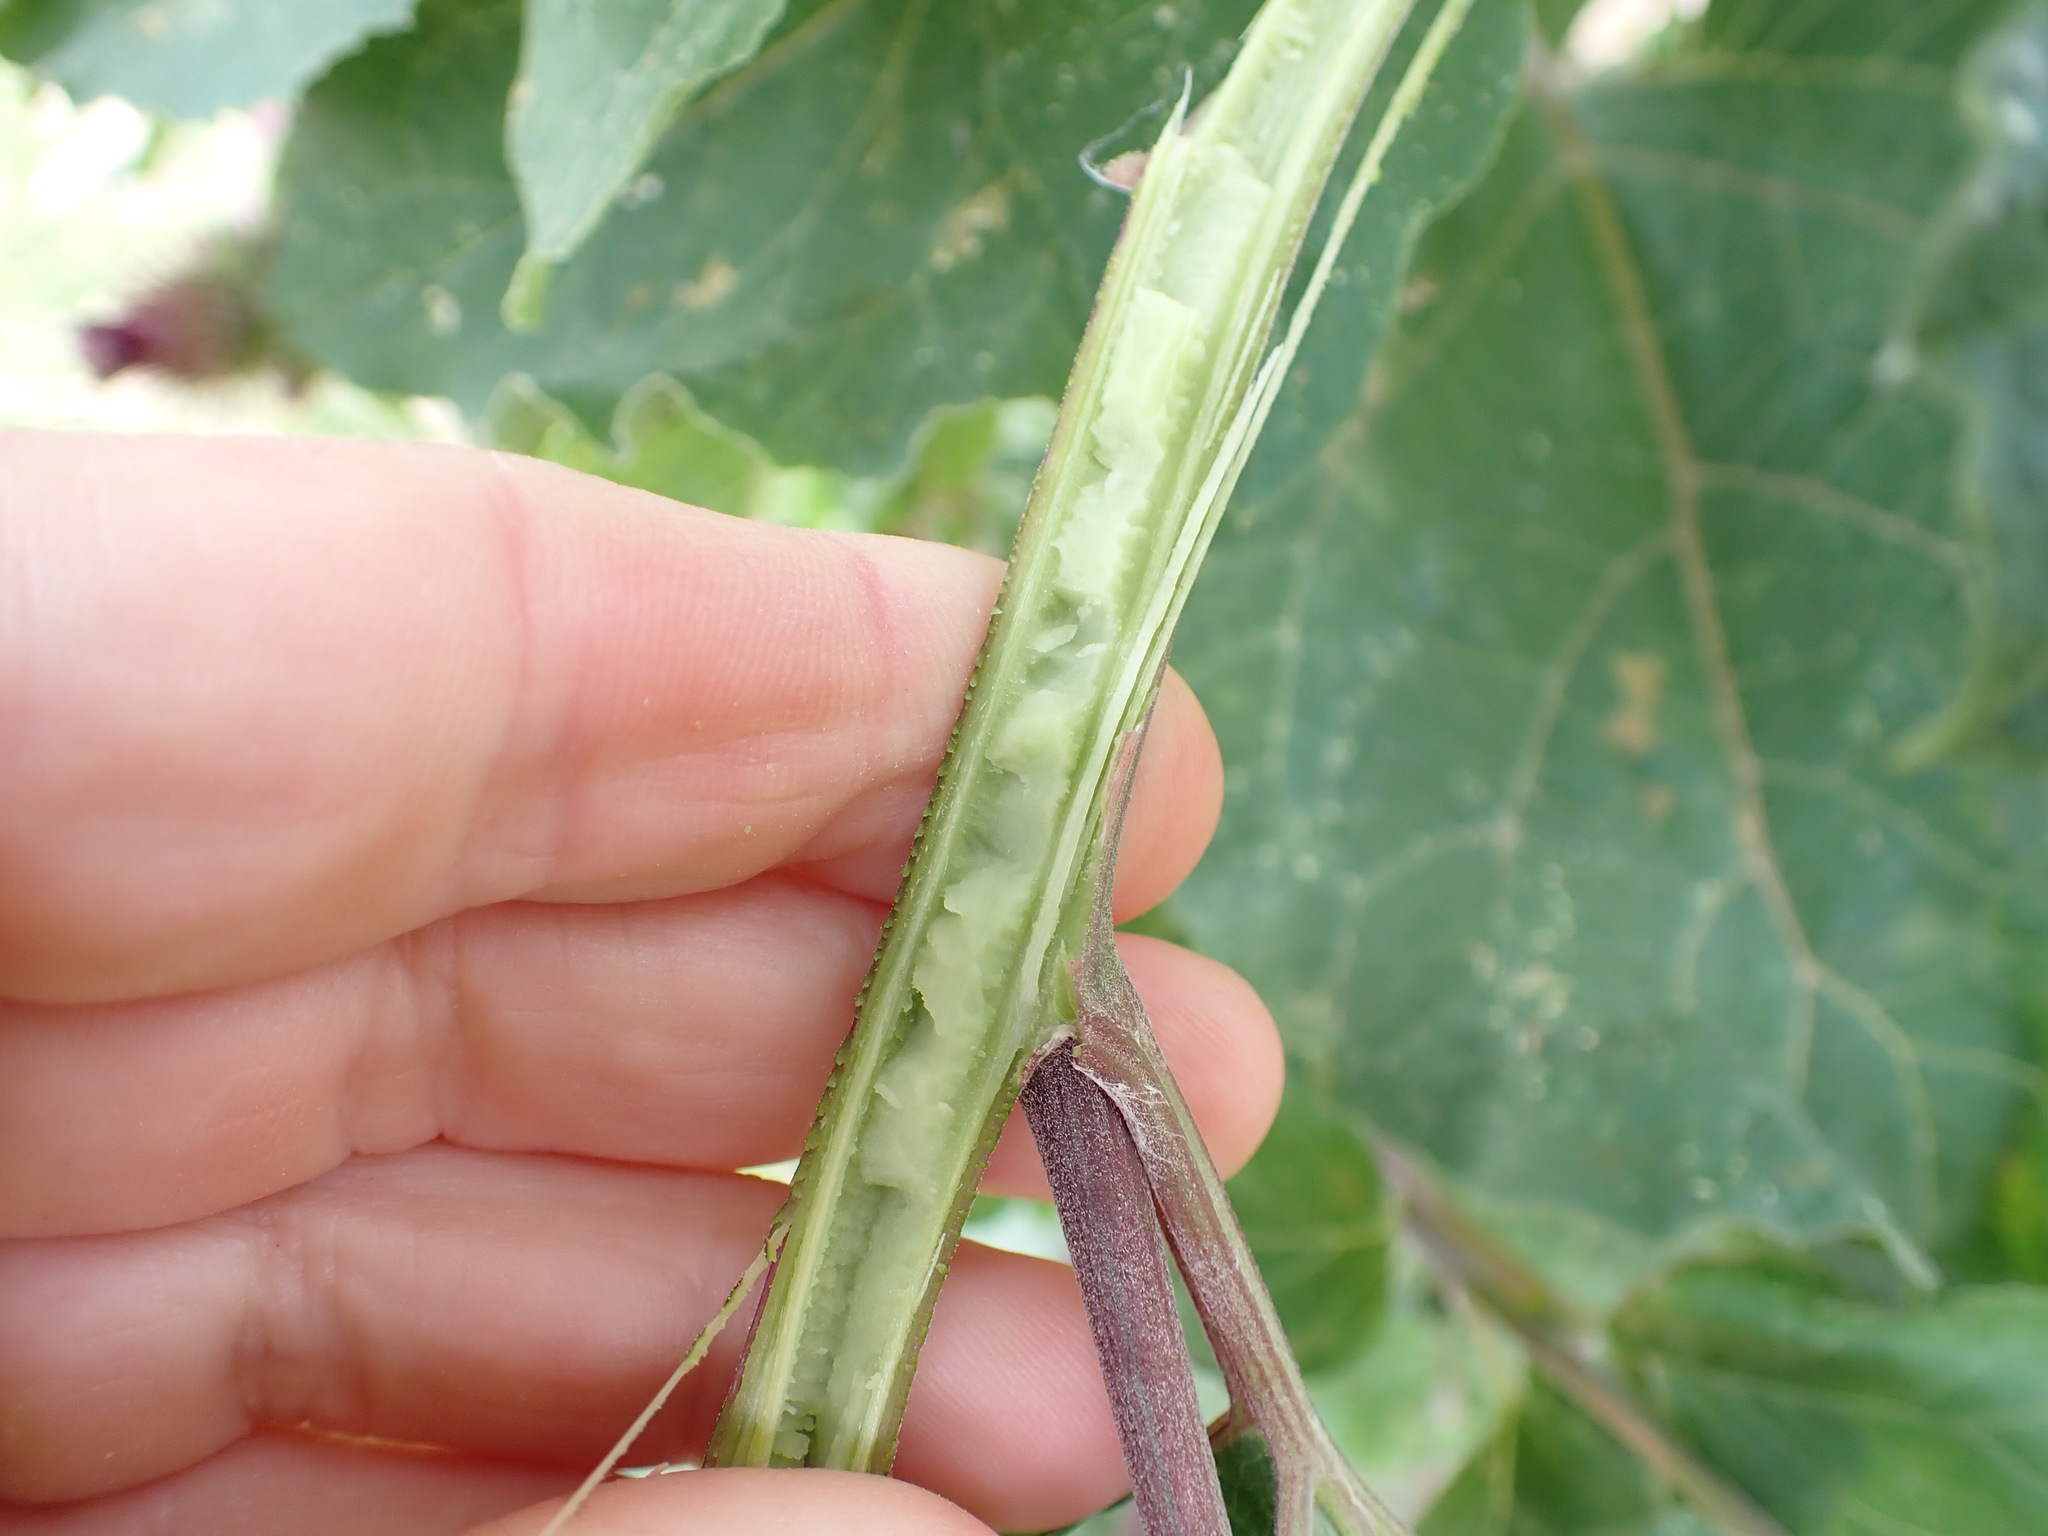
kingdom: Plantae
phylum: Tracheophyta
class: Magnoliopsida
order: Asterales
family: Asteraceae
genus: Arctium
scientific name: Arctium minus
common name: Lesser burdock
